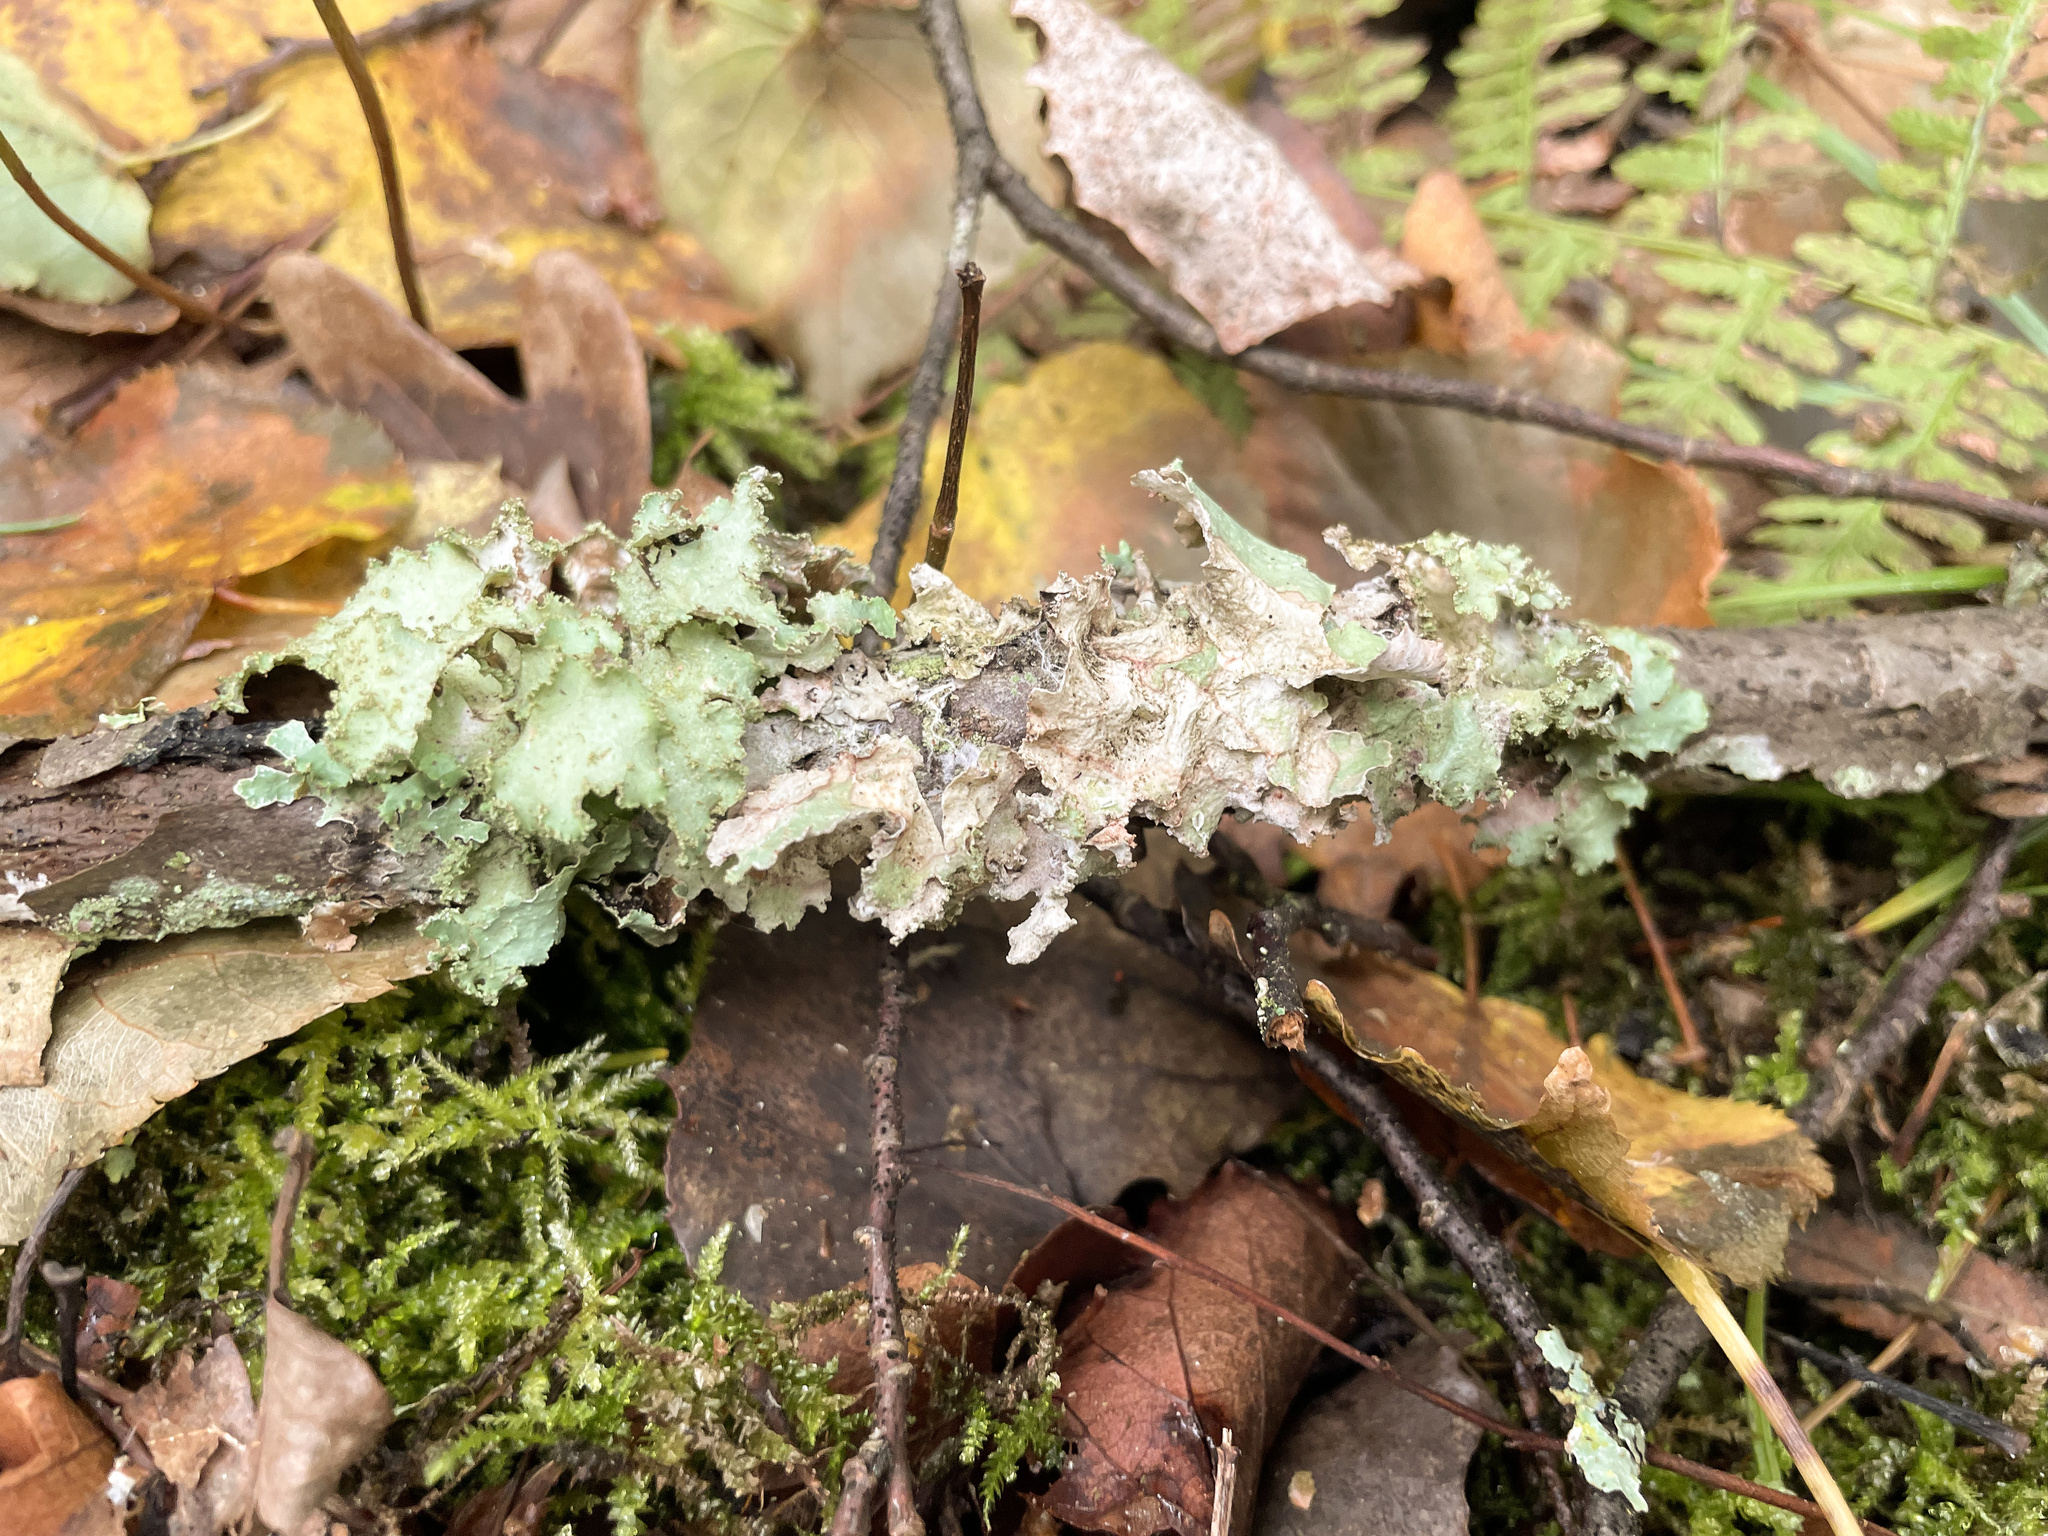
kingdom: Fungi
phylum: Ascomycota
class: Lecanoromycetes
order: Lecanorales
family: Parmeliaceae
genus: Platismatia
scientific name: Platismatia glauca
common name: Varied rag lichen
